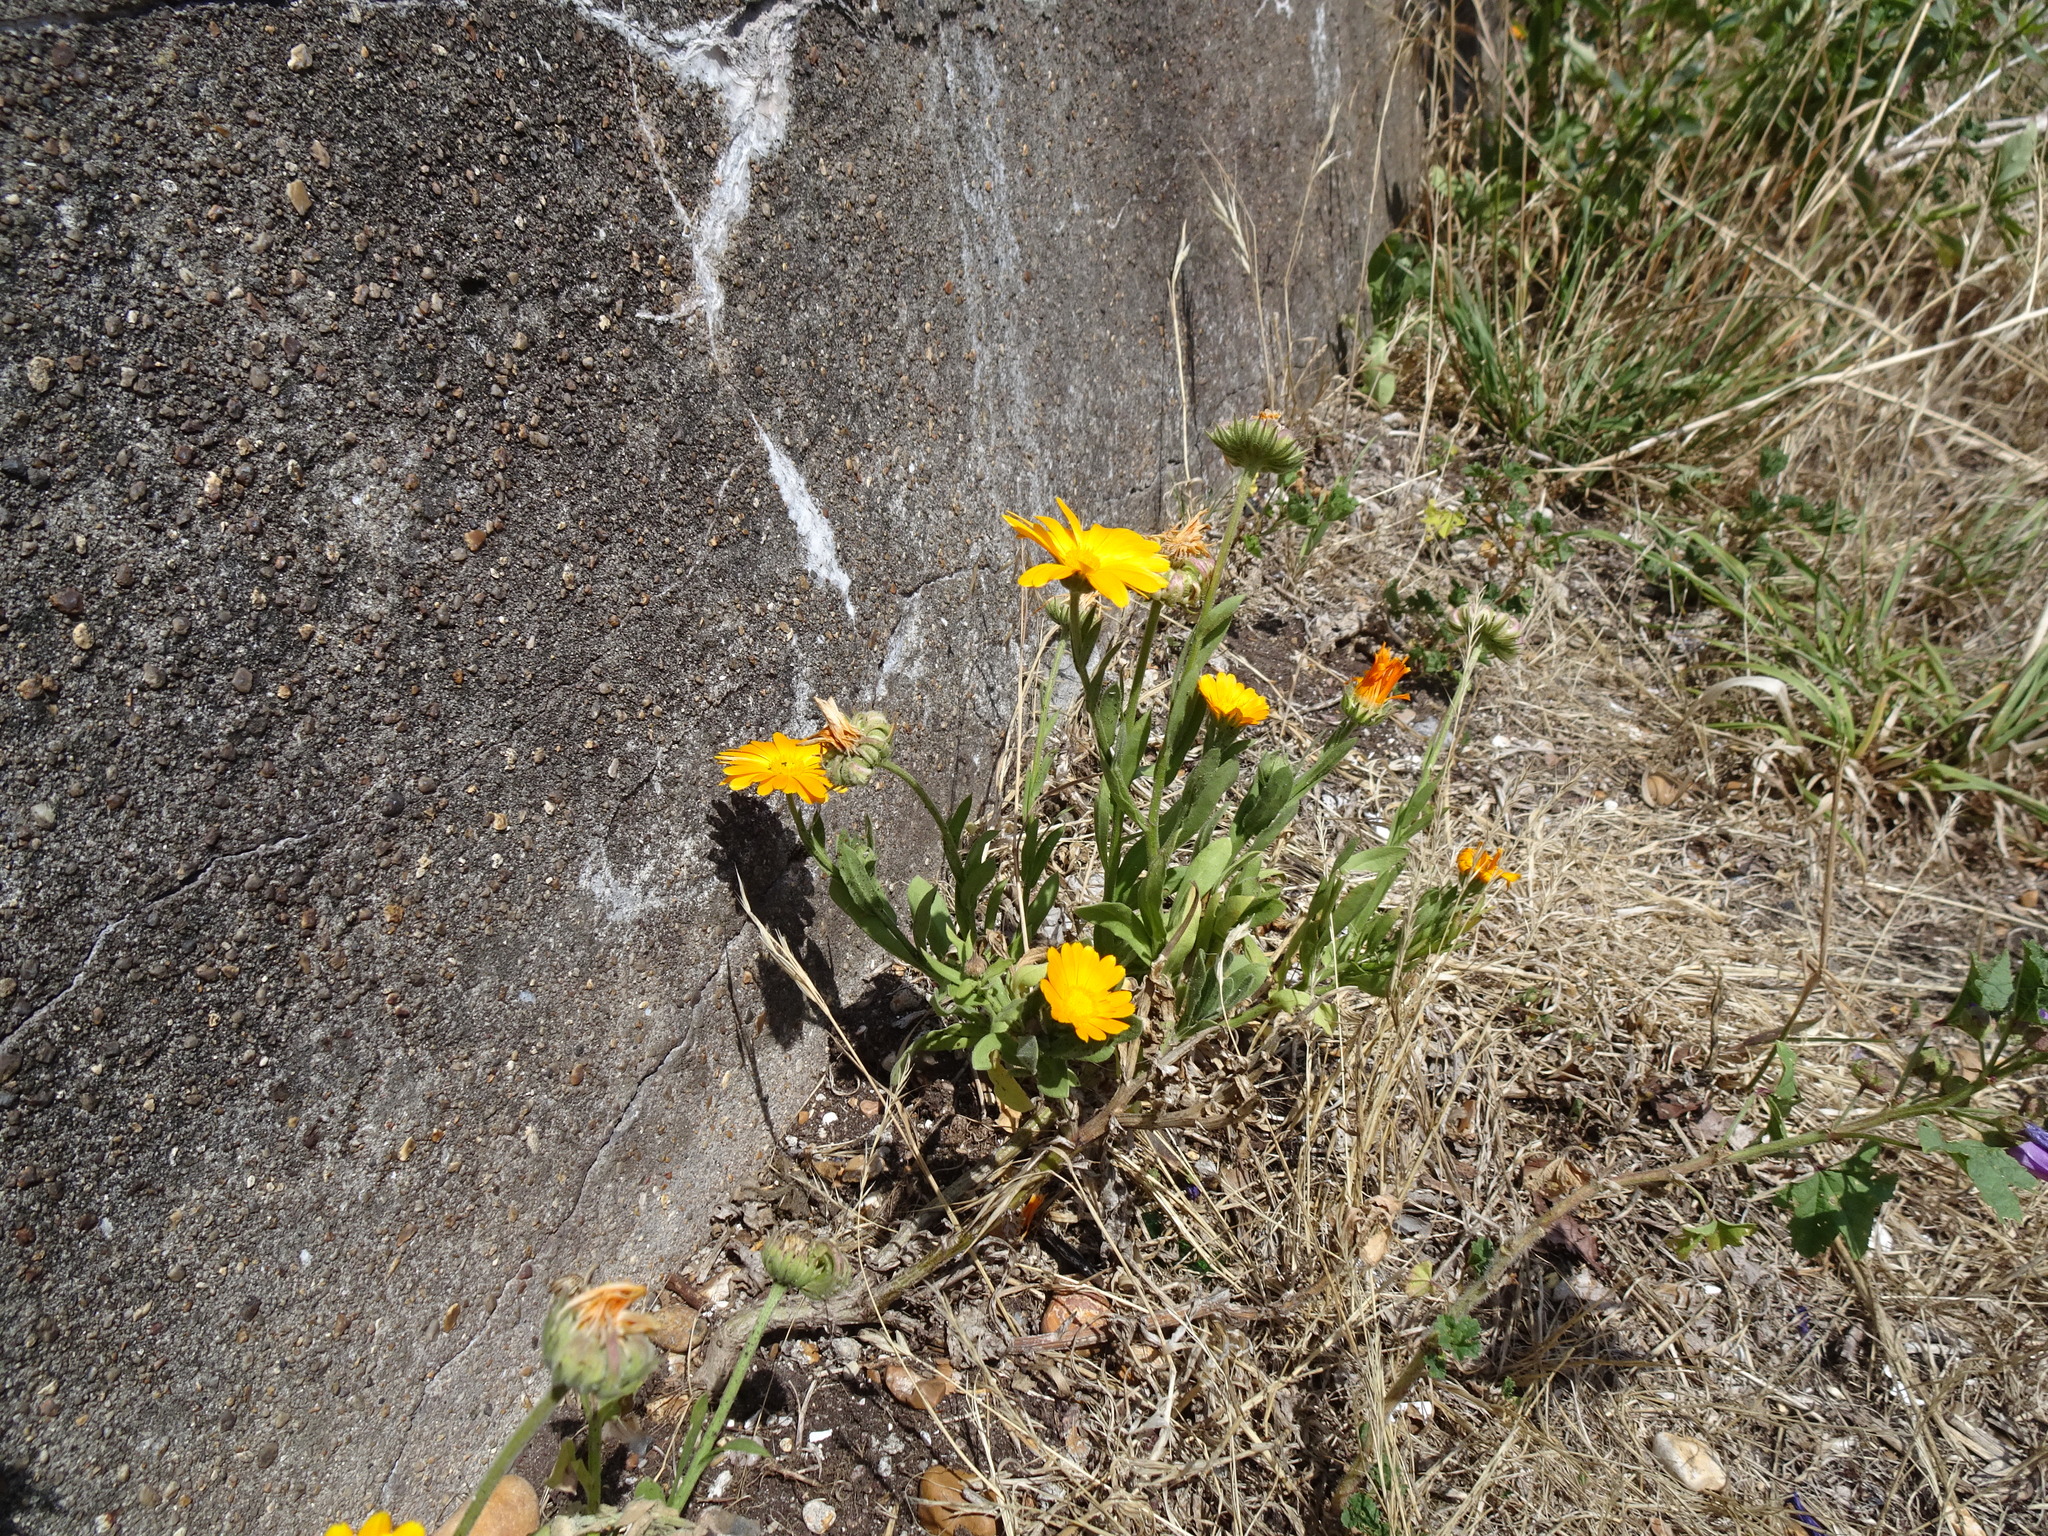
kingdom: Plantae
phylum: Tracheophyta
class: Magnoliopsida
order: Asterales
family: Asteraceae
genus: Calendula
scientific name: Calendula officinalis
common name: Pot marigold
